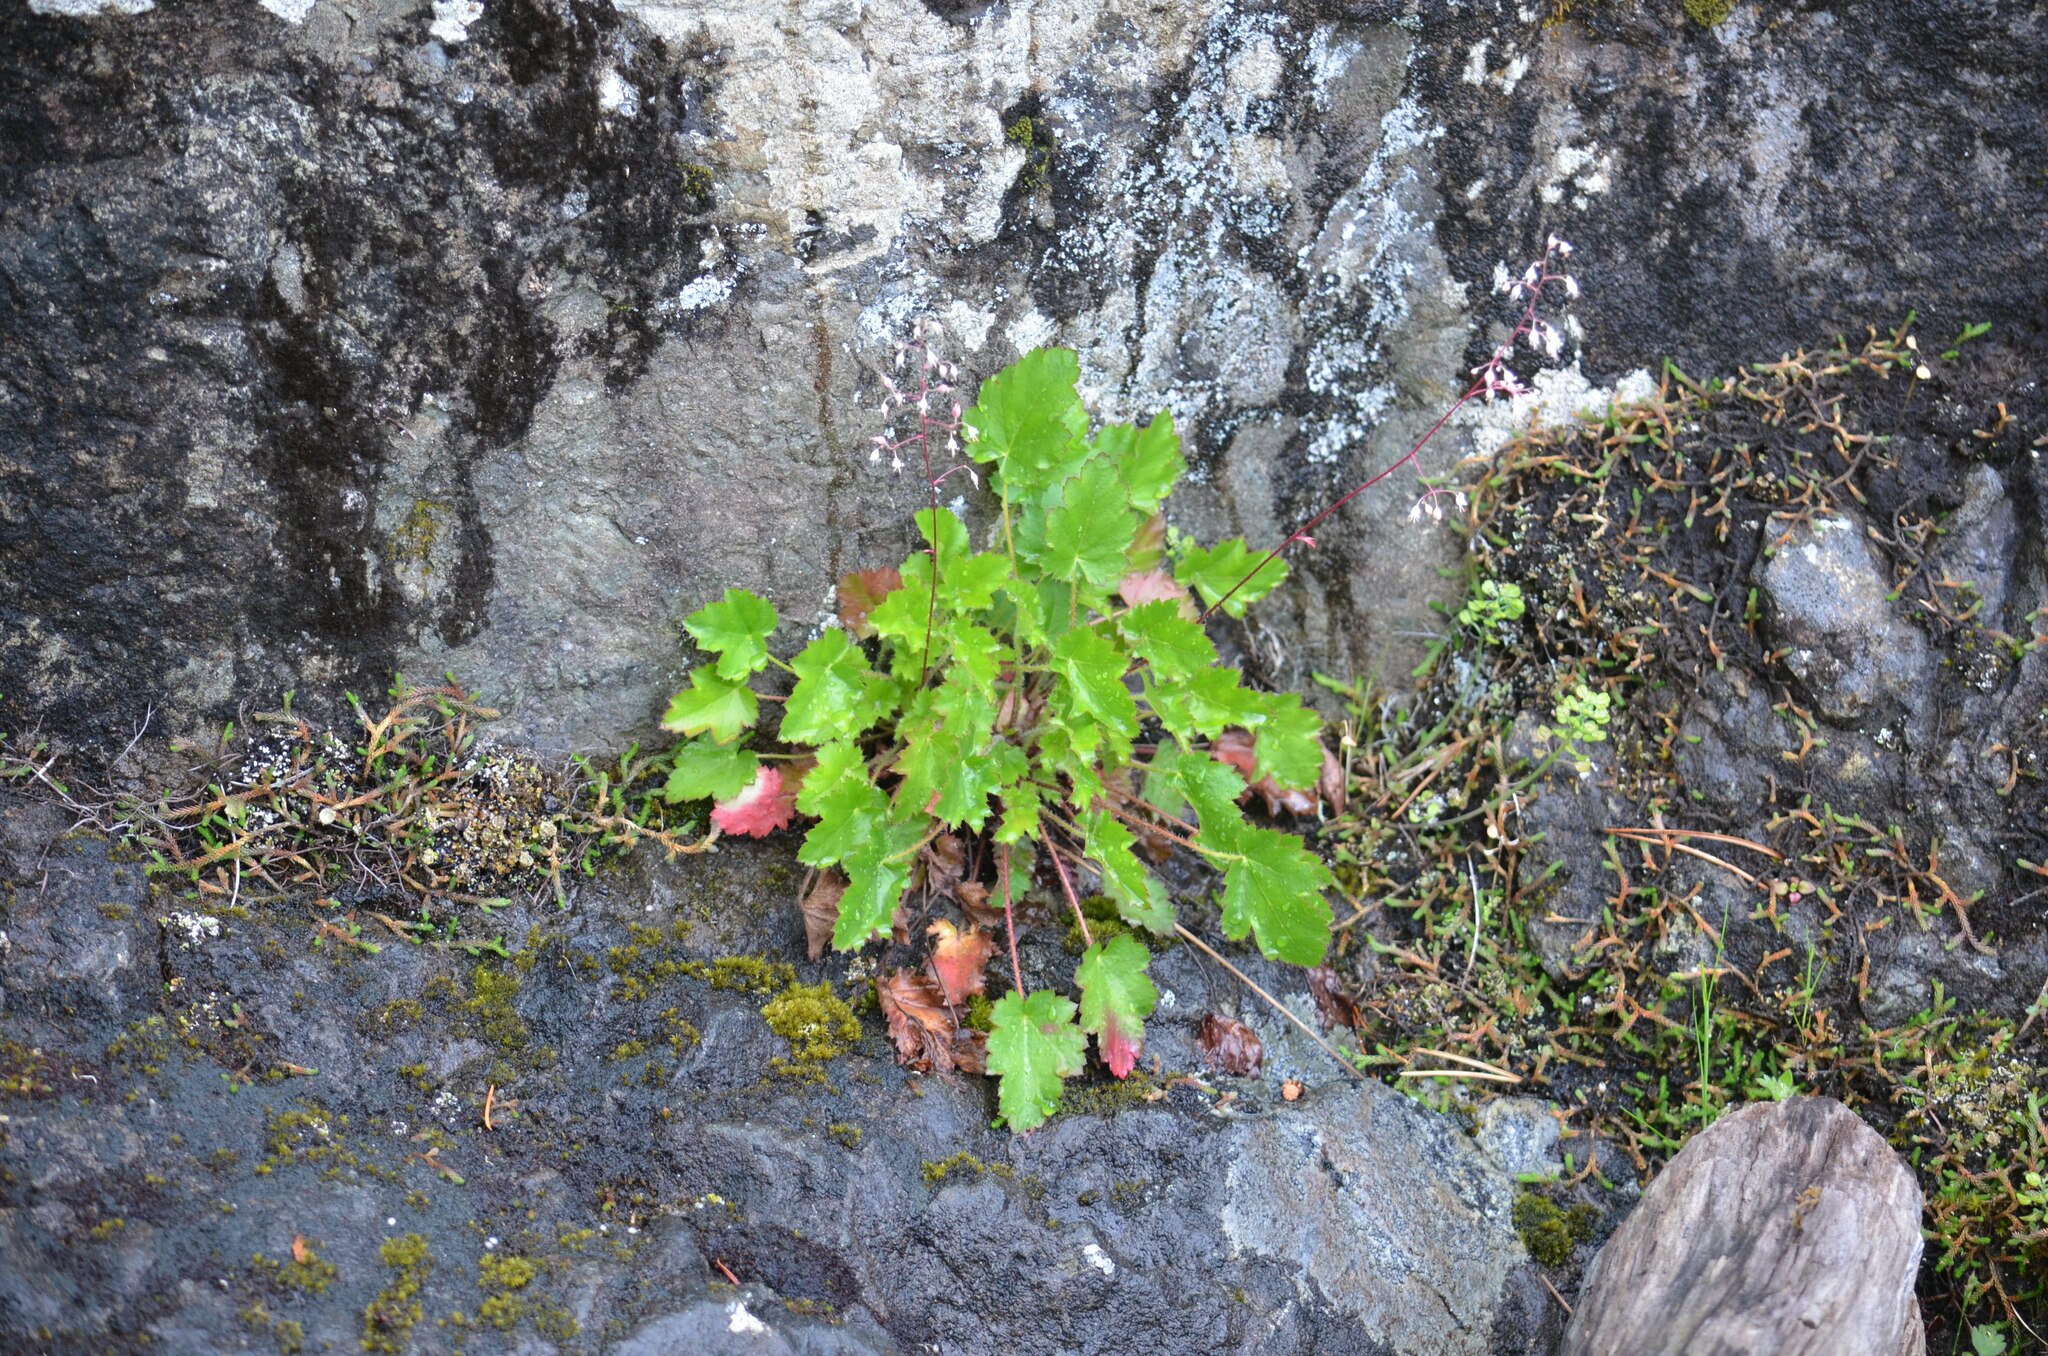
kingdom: Plantae
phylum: Tracheophyta
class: Magnoliopsida
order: Saxifragales
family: Saxifragaceae
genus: Heuchera
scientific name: Heuchera micrantha
